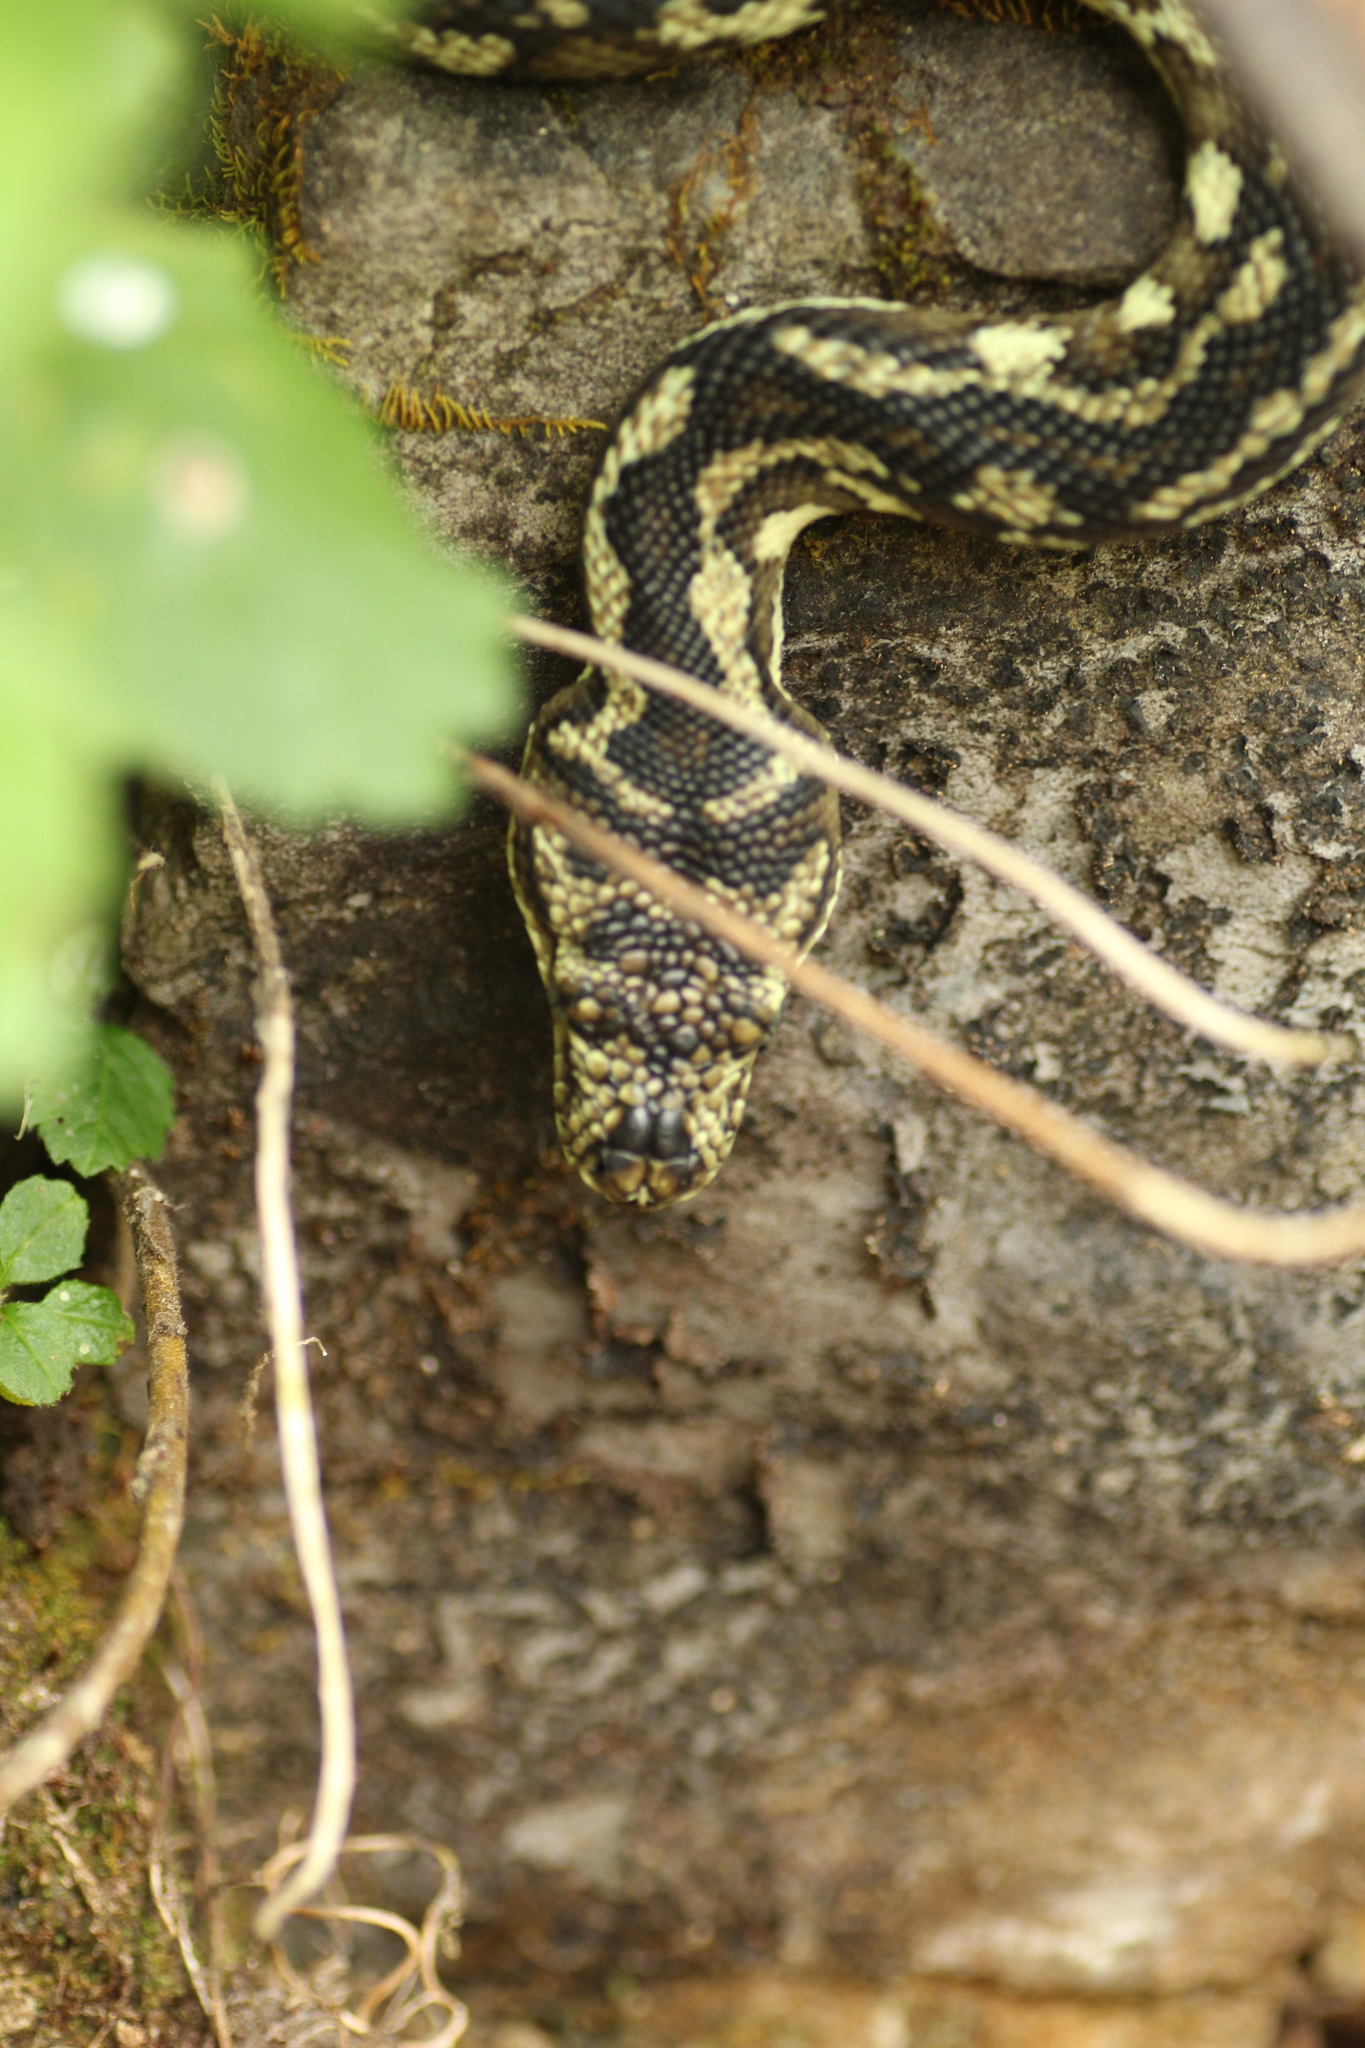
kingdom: Animalia
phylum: Chordata
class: Squamata
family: Pythonidae
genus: Morelia
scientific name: Morelia imbricata
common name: Carpet python
